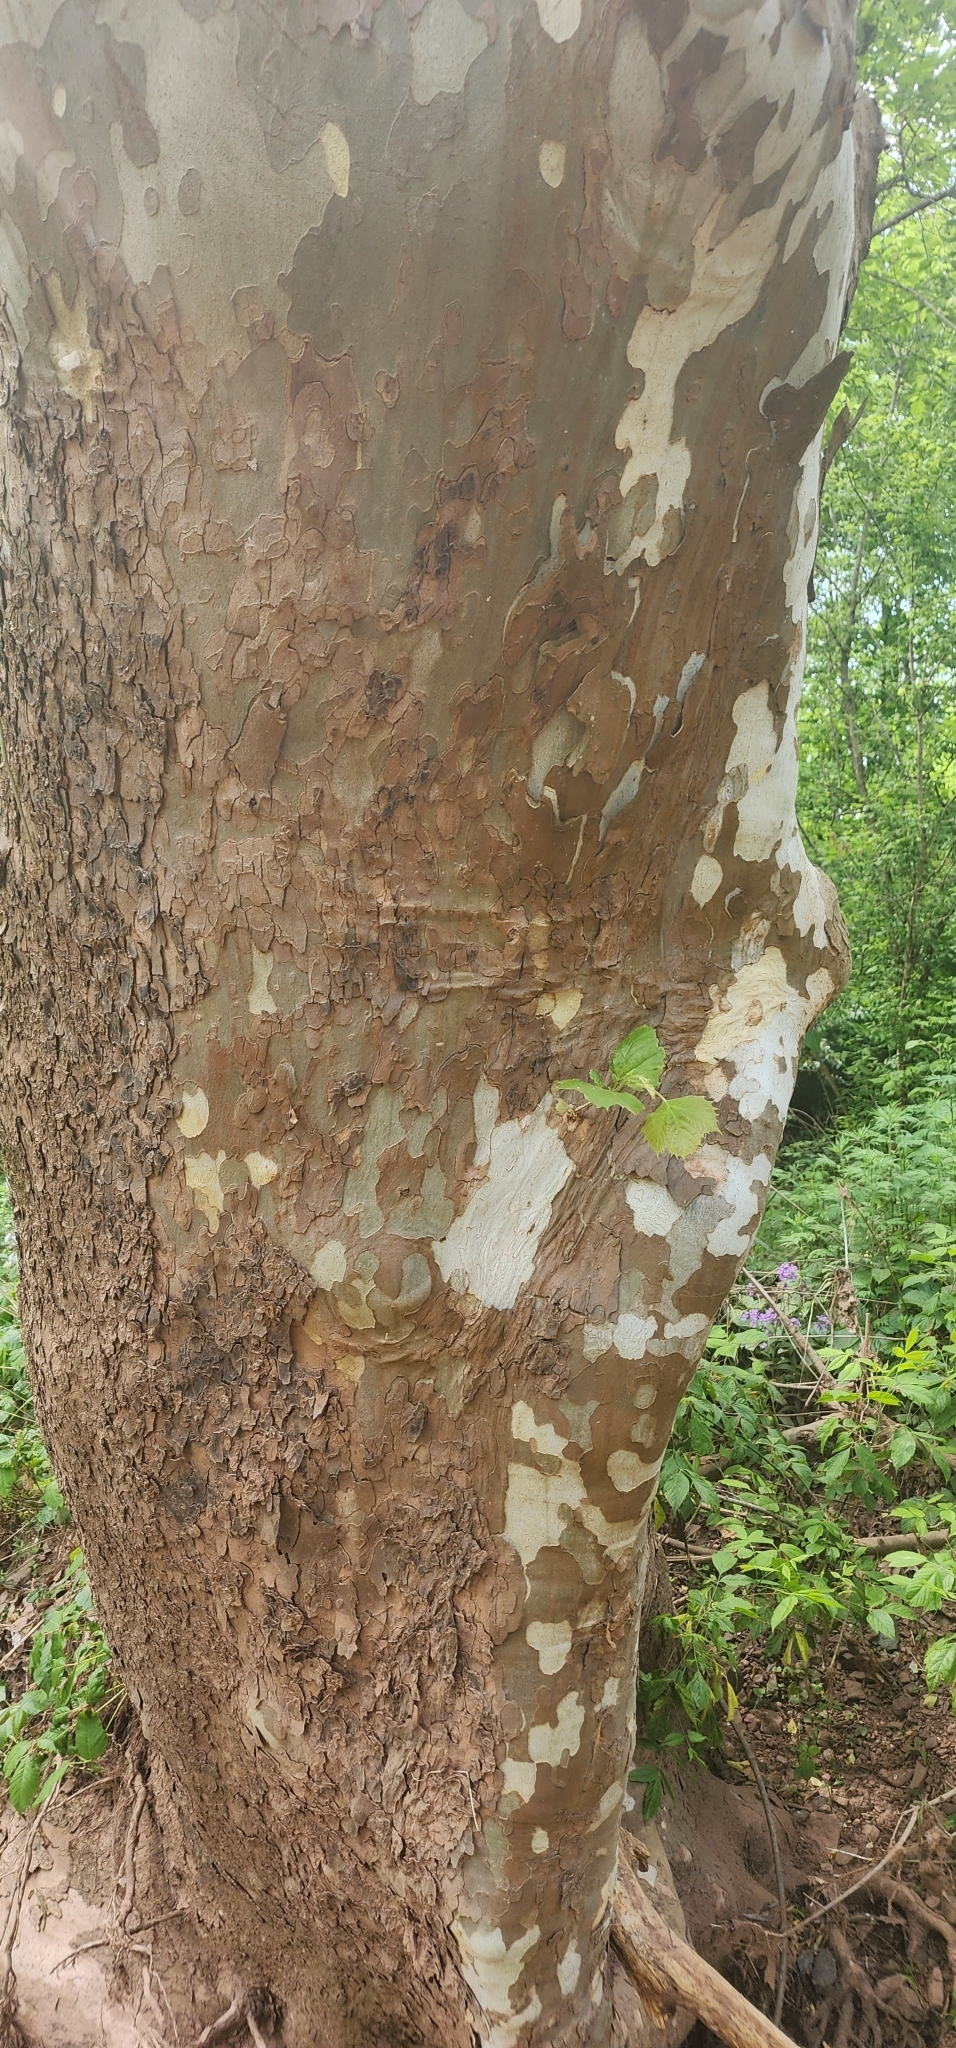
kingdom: Plantae
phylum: Tracheophyta
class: Magnoliopsida
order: Proteales
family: Platanaceae
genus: Platanus
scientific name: Platanus occidentalis
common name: American sycamore
